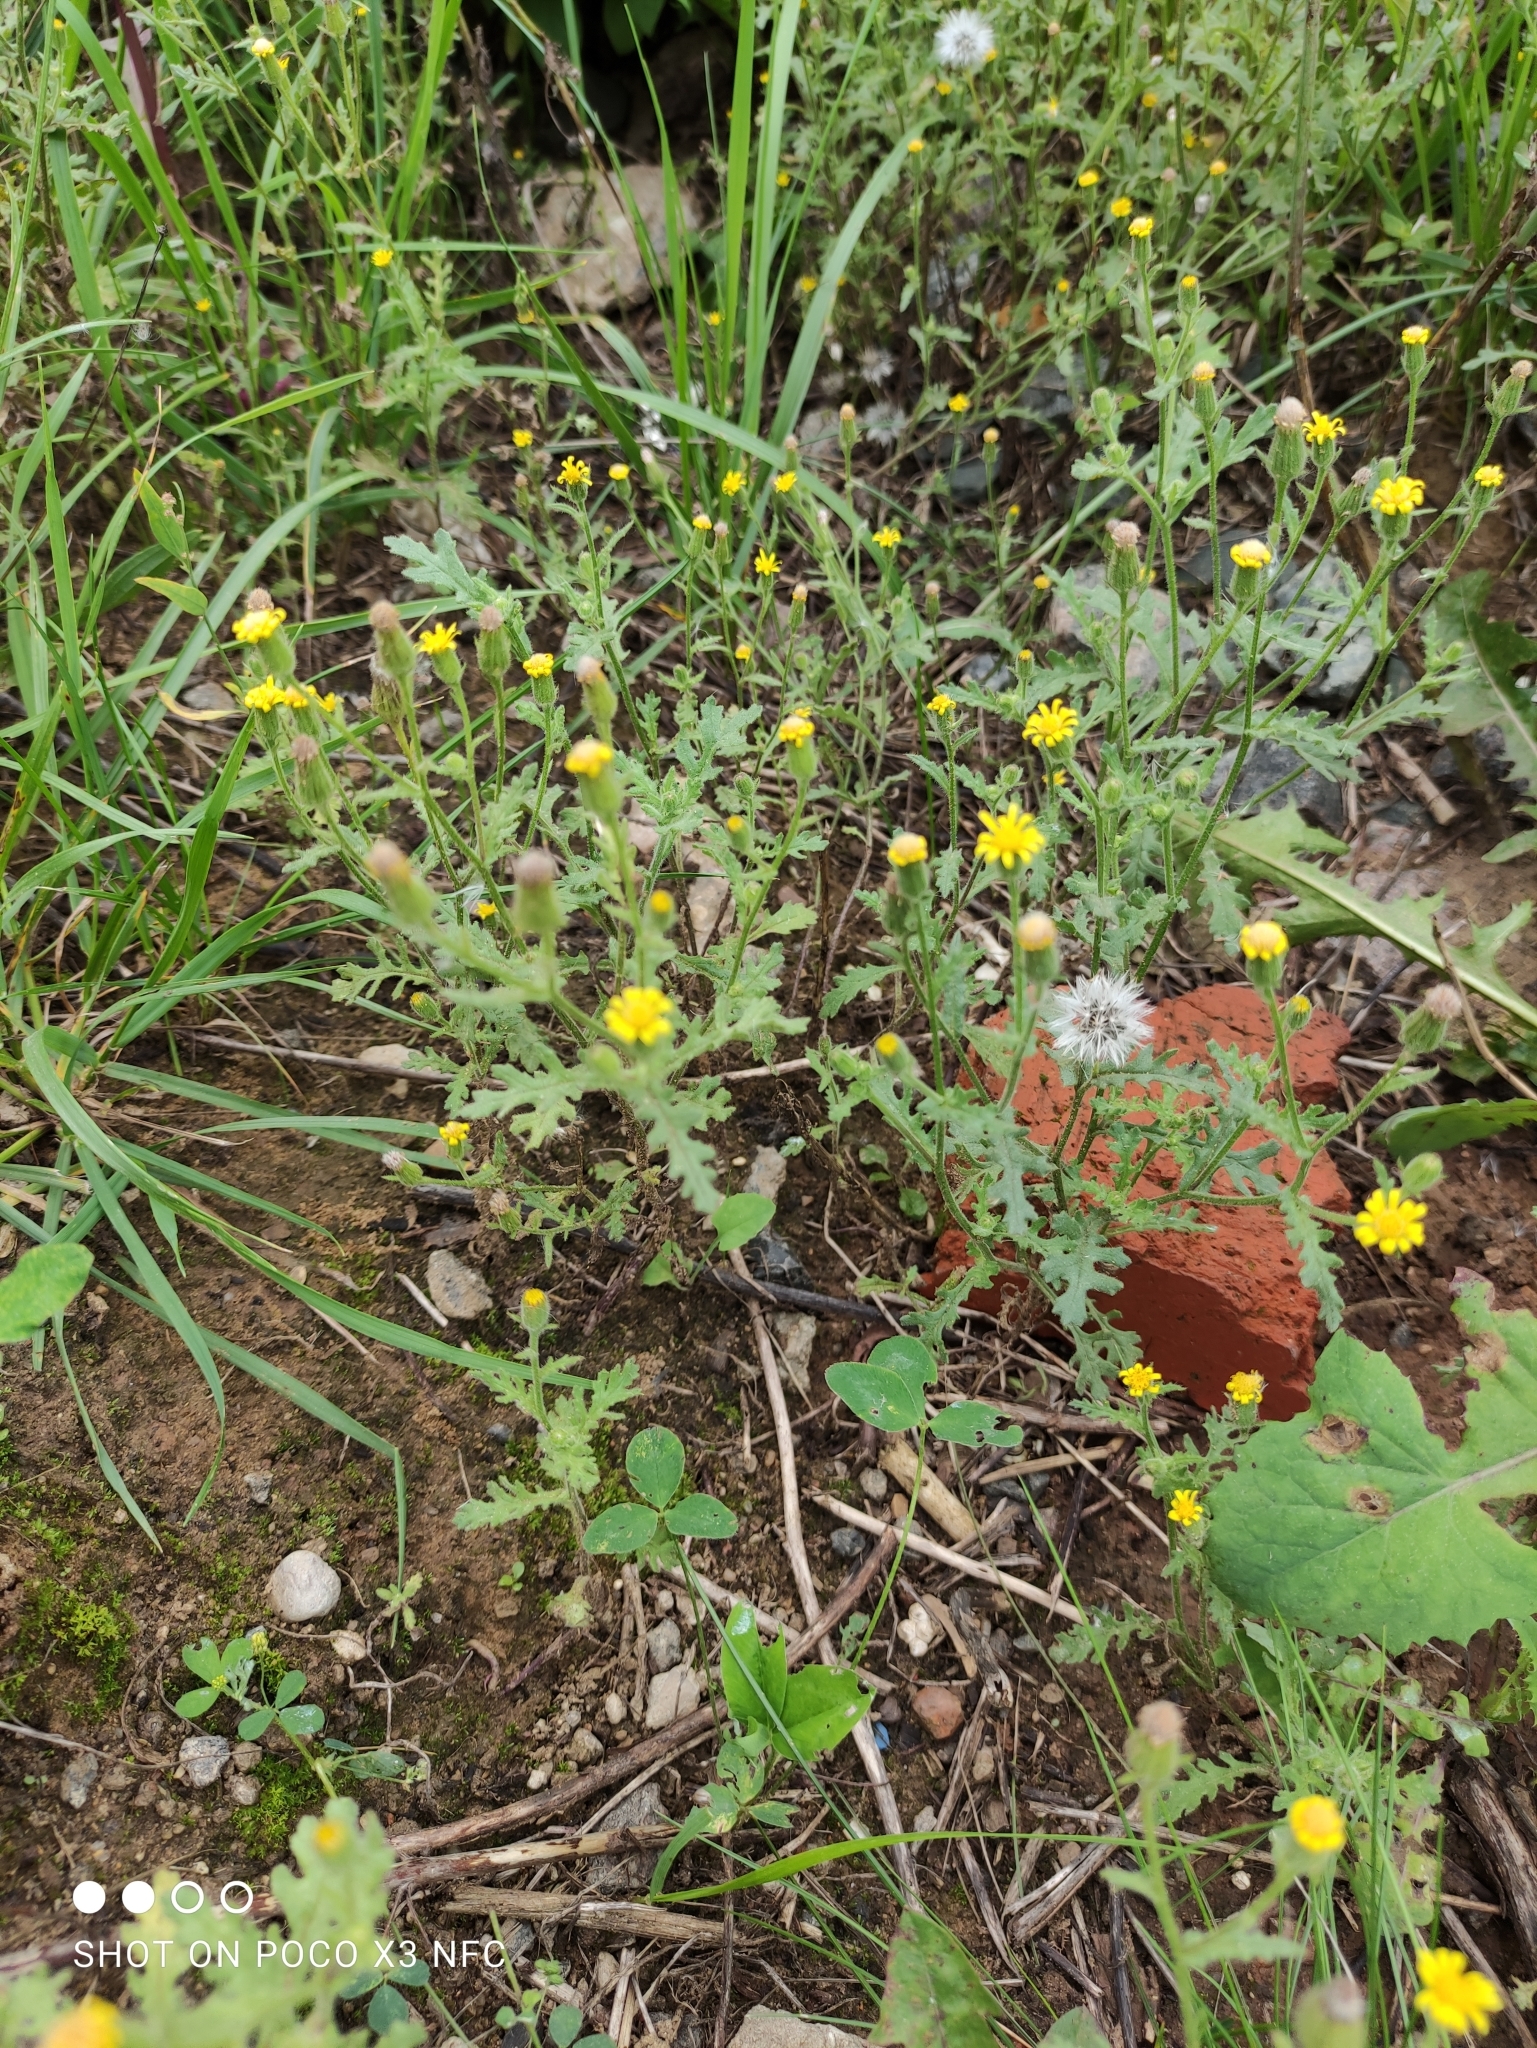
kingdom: Plantae
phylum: Tracheophyta
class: Magnoliopsida
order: Asterales
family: Asteraceae
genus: Senecio
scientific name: Senecio viscosus
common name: Sticky groundsel
